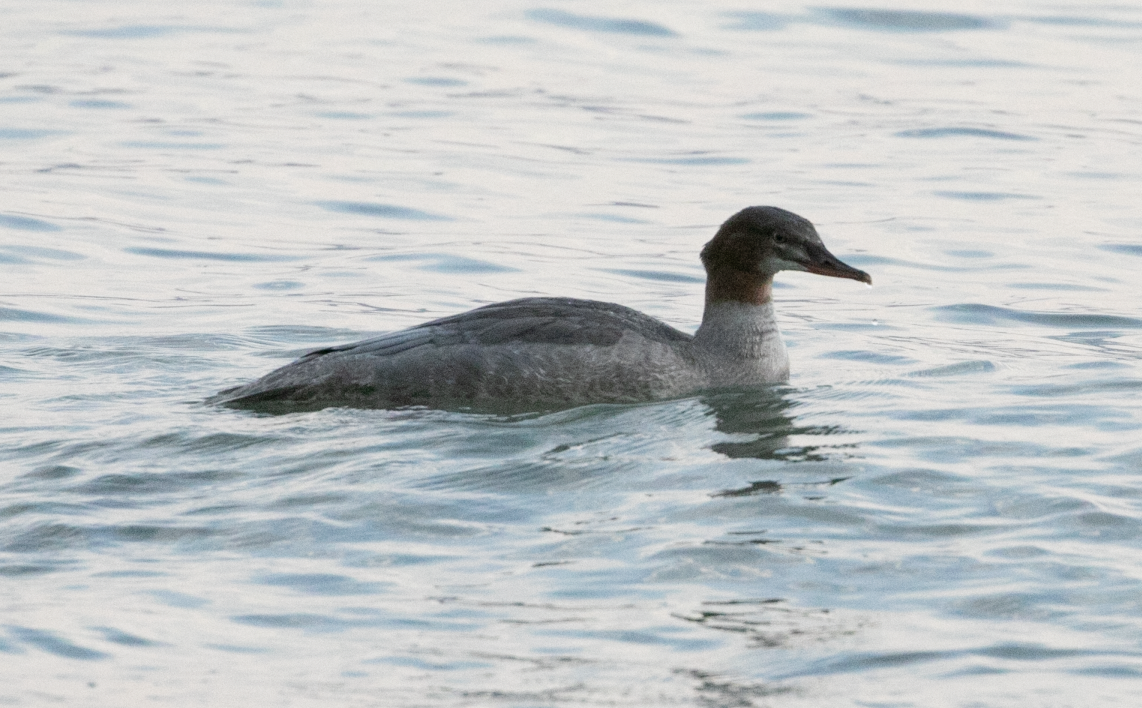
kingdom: Animalia
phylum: Chordata
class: Aves
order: Anseriformes
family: Anatidae
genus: Mergus
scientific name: Mergus merganser
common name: Common merganser
